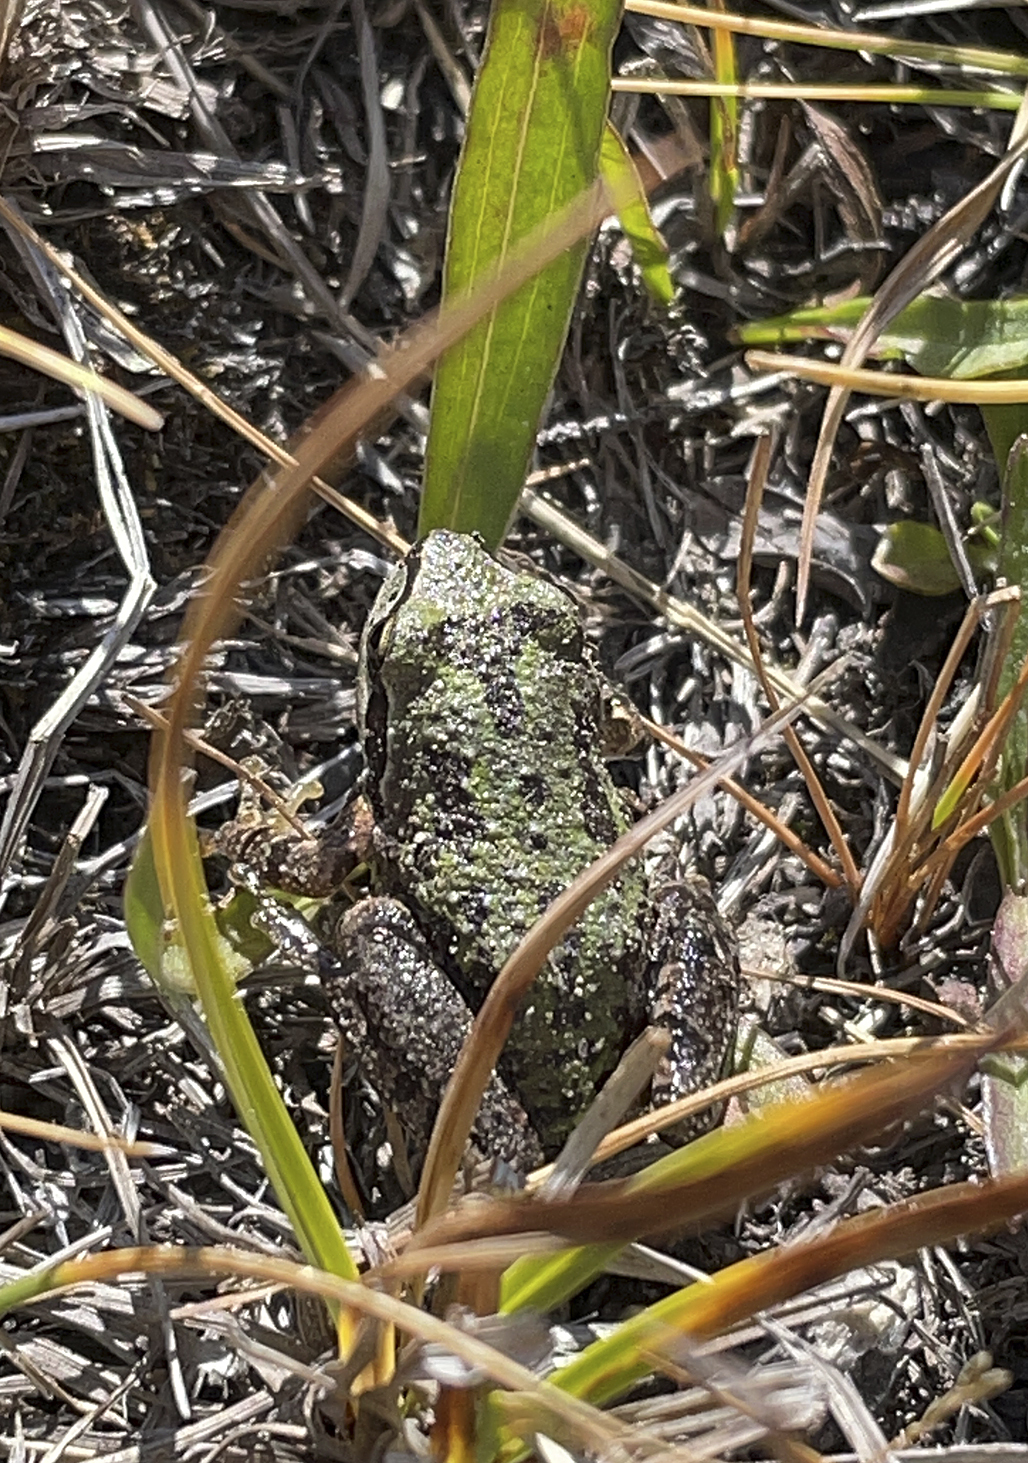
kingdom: Animalia
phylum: Chordata
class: Amphibia
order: Anura
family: Hylidae
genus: Pseudacris
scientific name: Pseudacris regilla
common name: Pacific chorus frog
